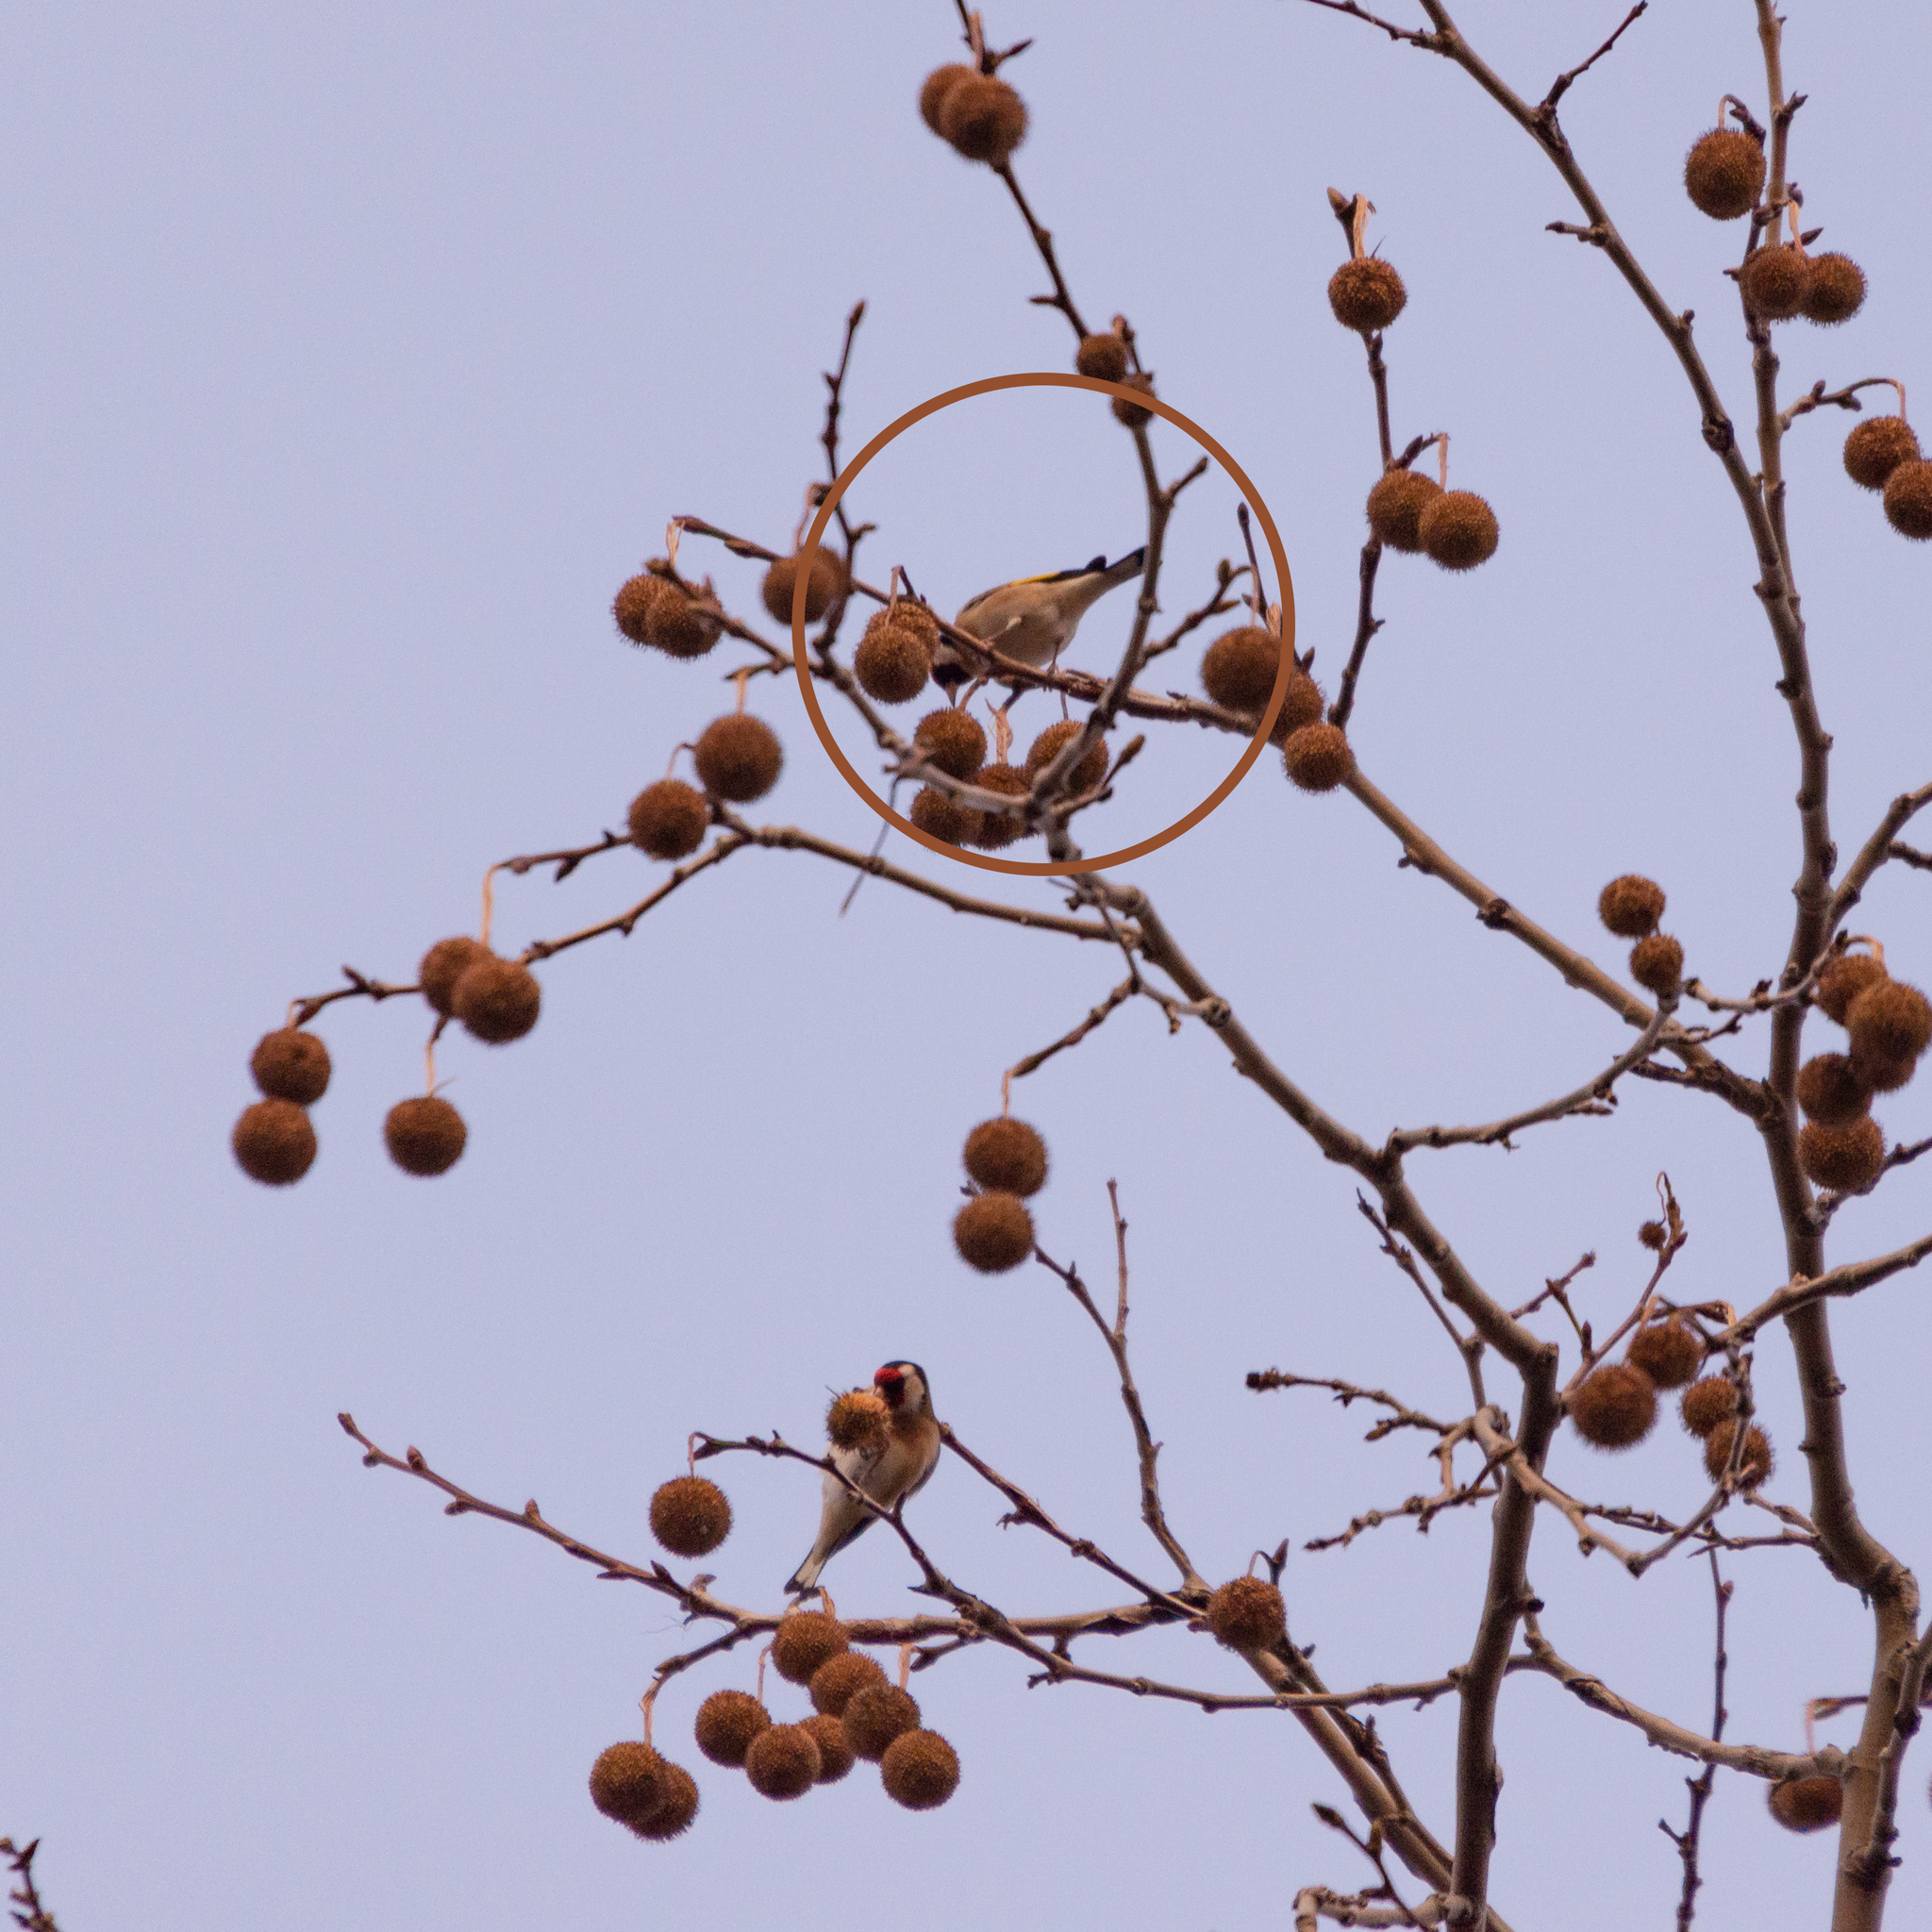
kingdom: Animalia
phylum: Chordata
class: Aves
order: Passeriformes
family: Fringillidae
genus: Carduelis
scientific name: Carduelis carduelis
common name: European goldfinch
